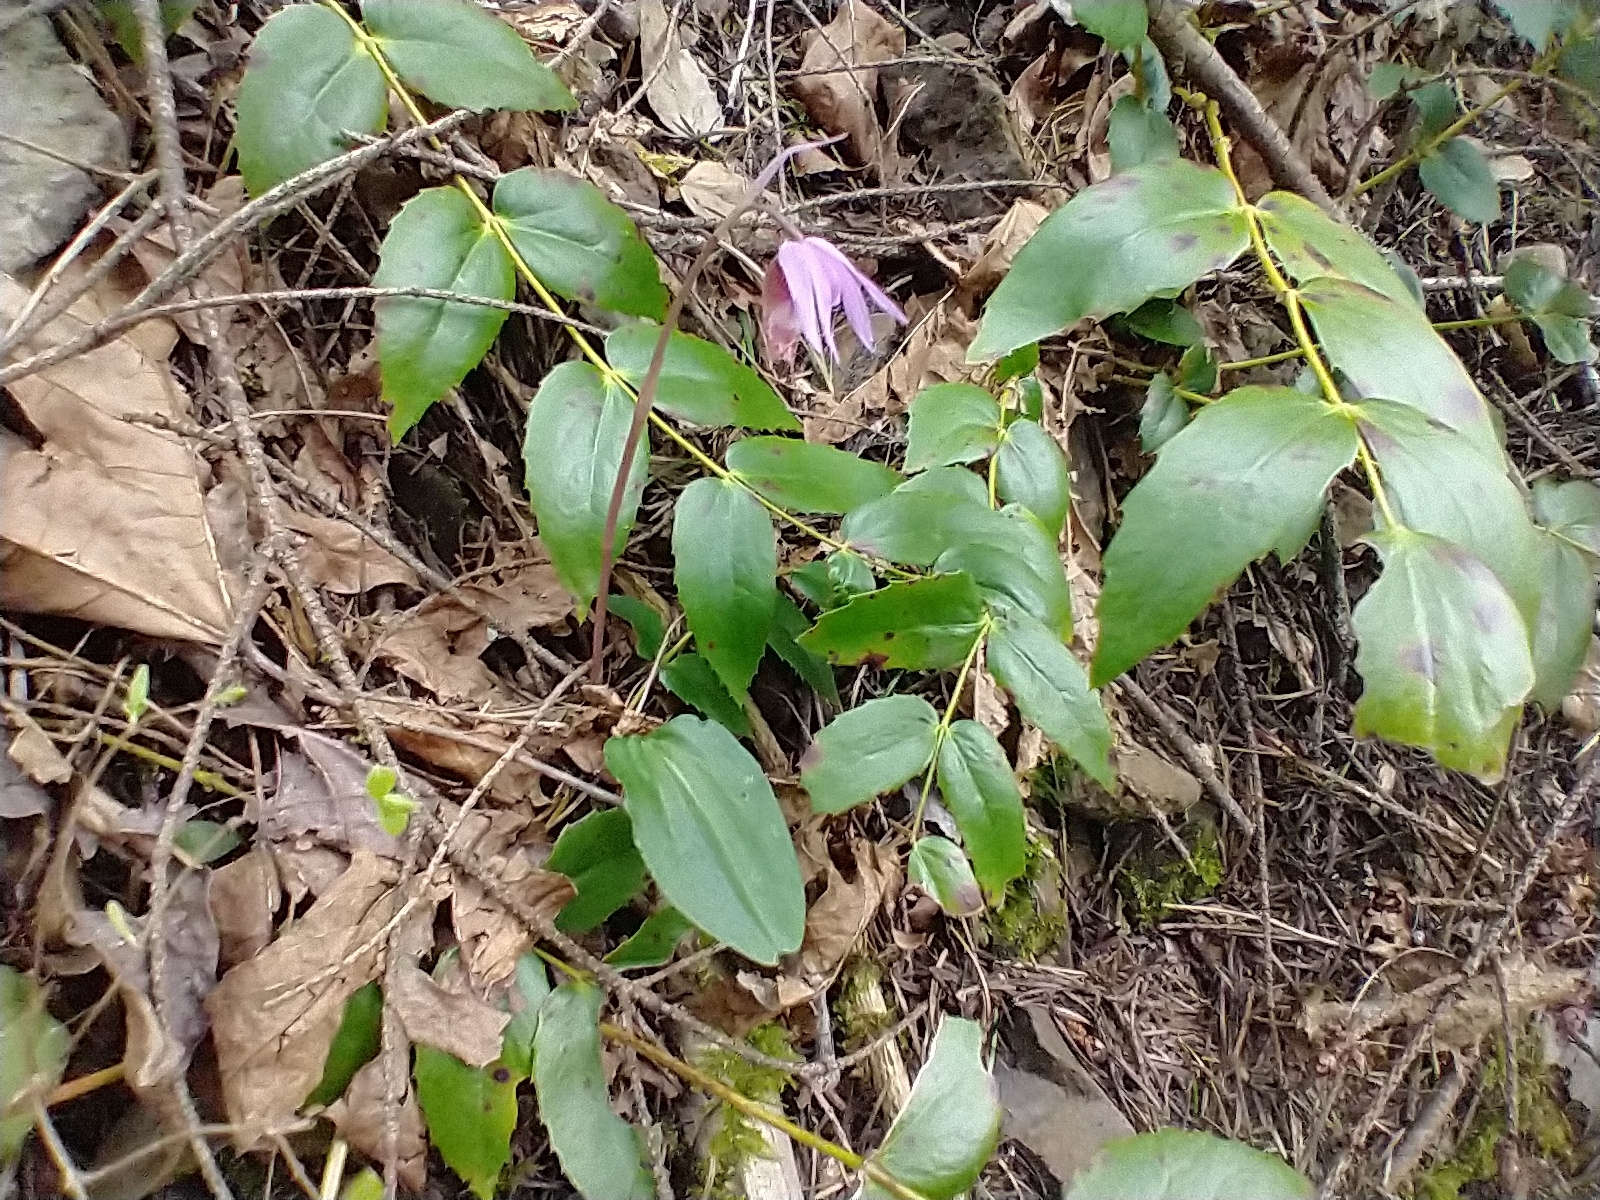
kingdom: Plantae
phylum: Tracheophyta
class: Liliopsida
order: Asparagales
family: Orchidaceae
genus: Calypso
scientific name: Calypso bulbosa
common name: Calypso
